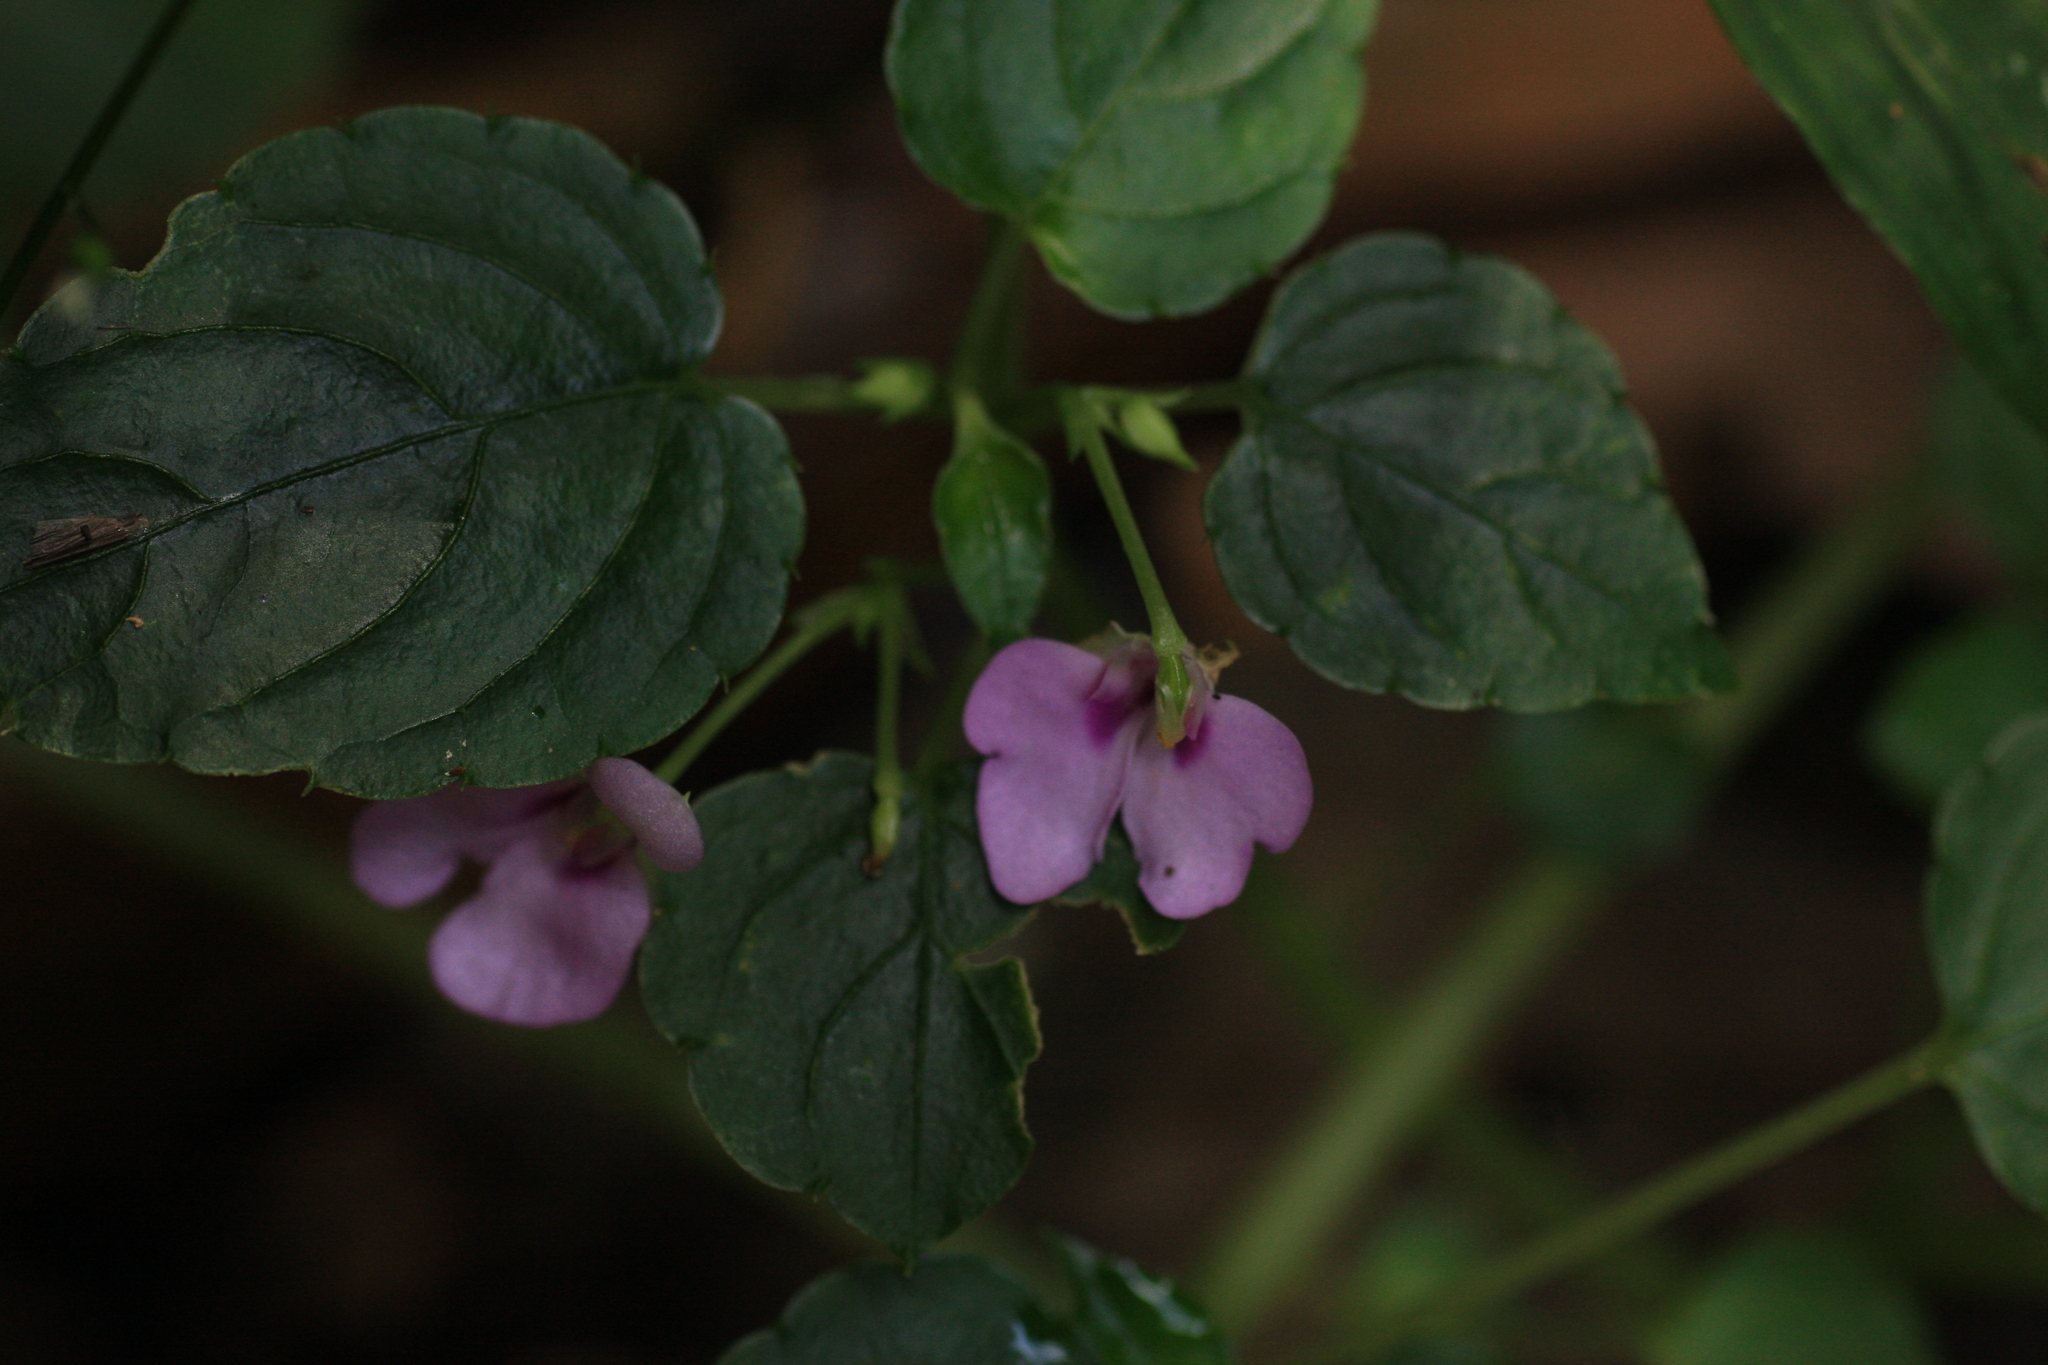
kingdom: Plantae
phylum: Tracheophyta
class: Magnoliopsida
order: Ericales
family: Balsaminaceae
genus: Impatiens
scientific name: Impatiens elegans
